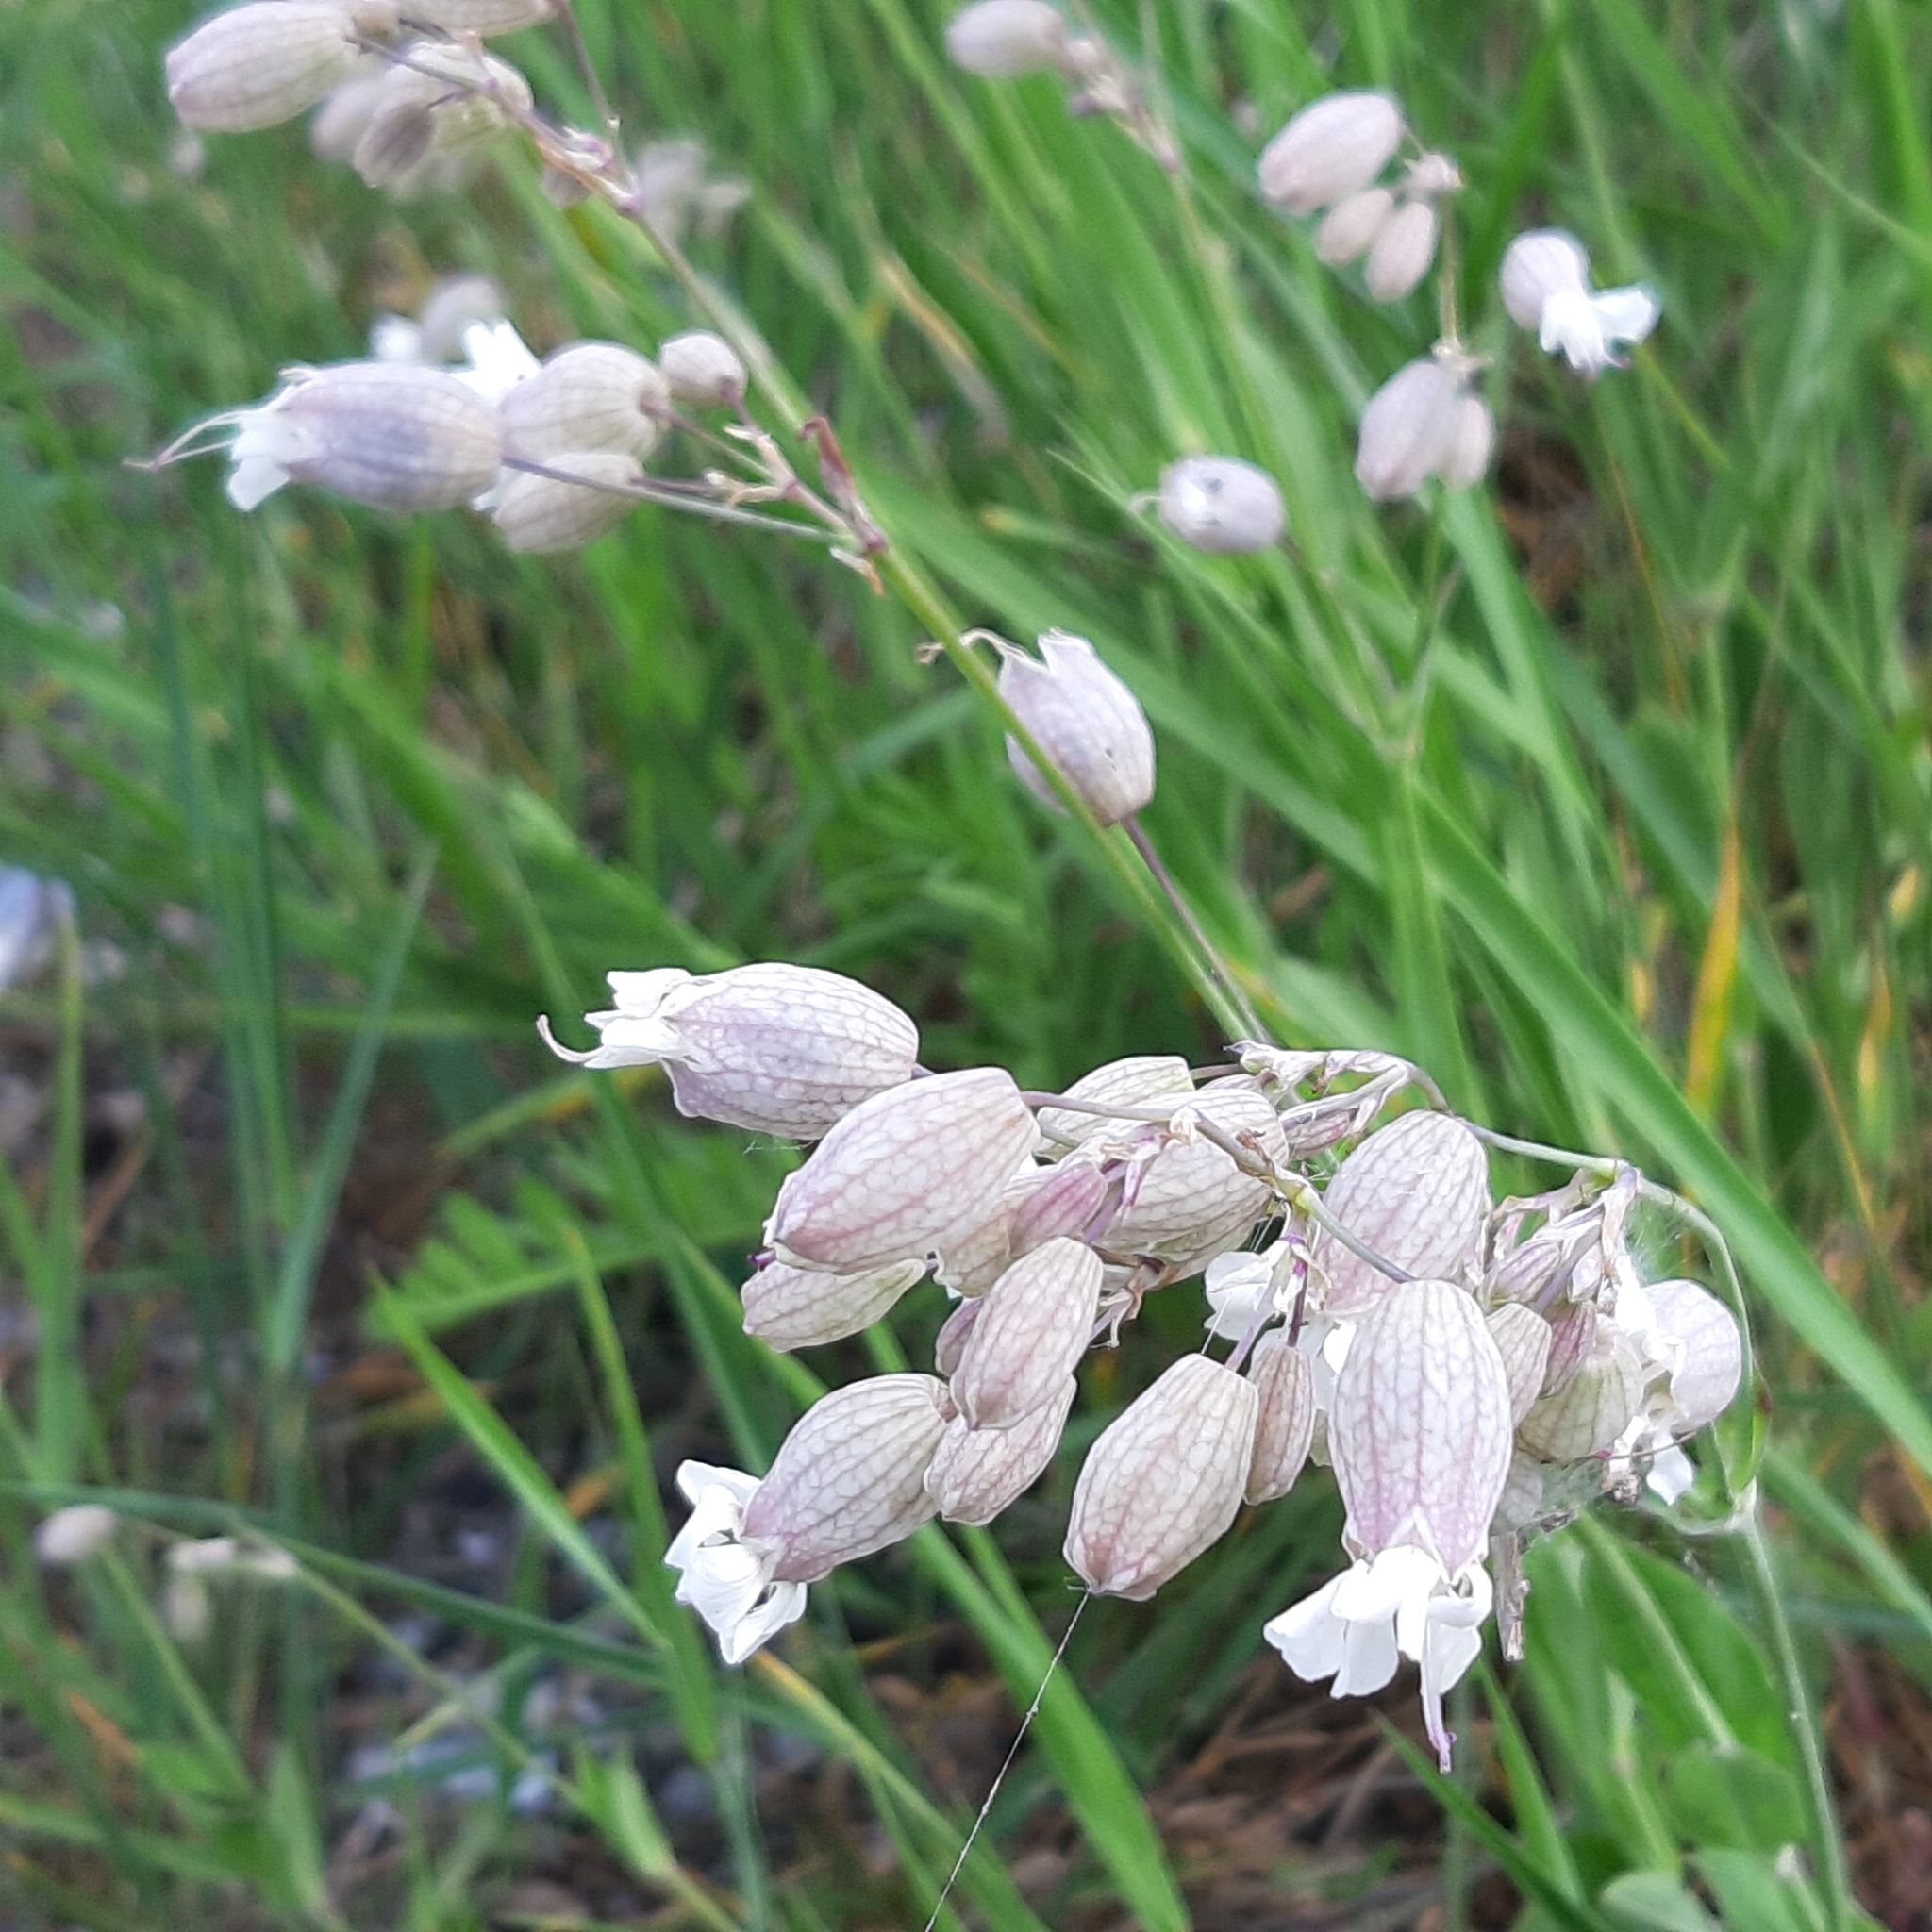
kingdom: Plantae
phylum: Tracheophyta
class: Magnoliopsida
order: Caryophyllales
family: Caryophyllaceae
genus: Silene
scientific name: Silene vulgaris
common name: Bladder campion
